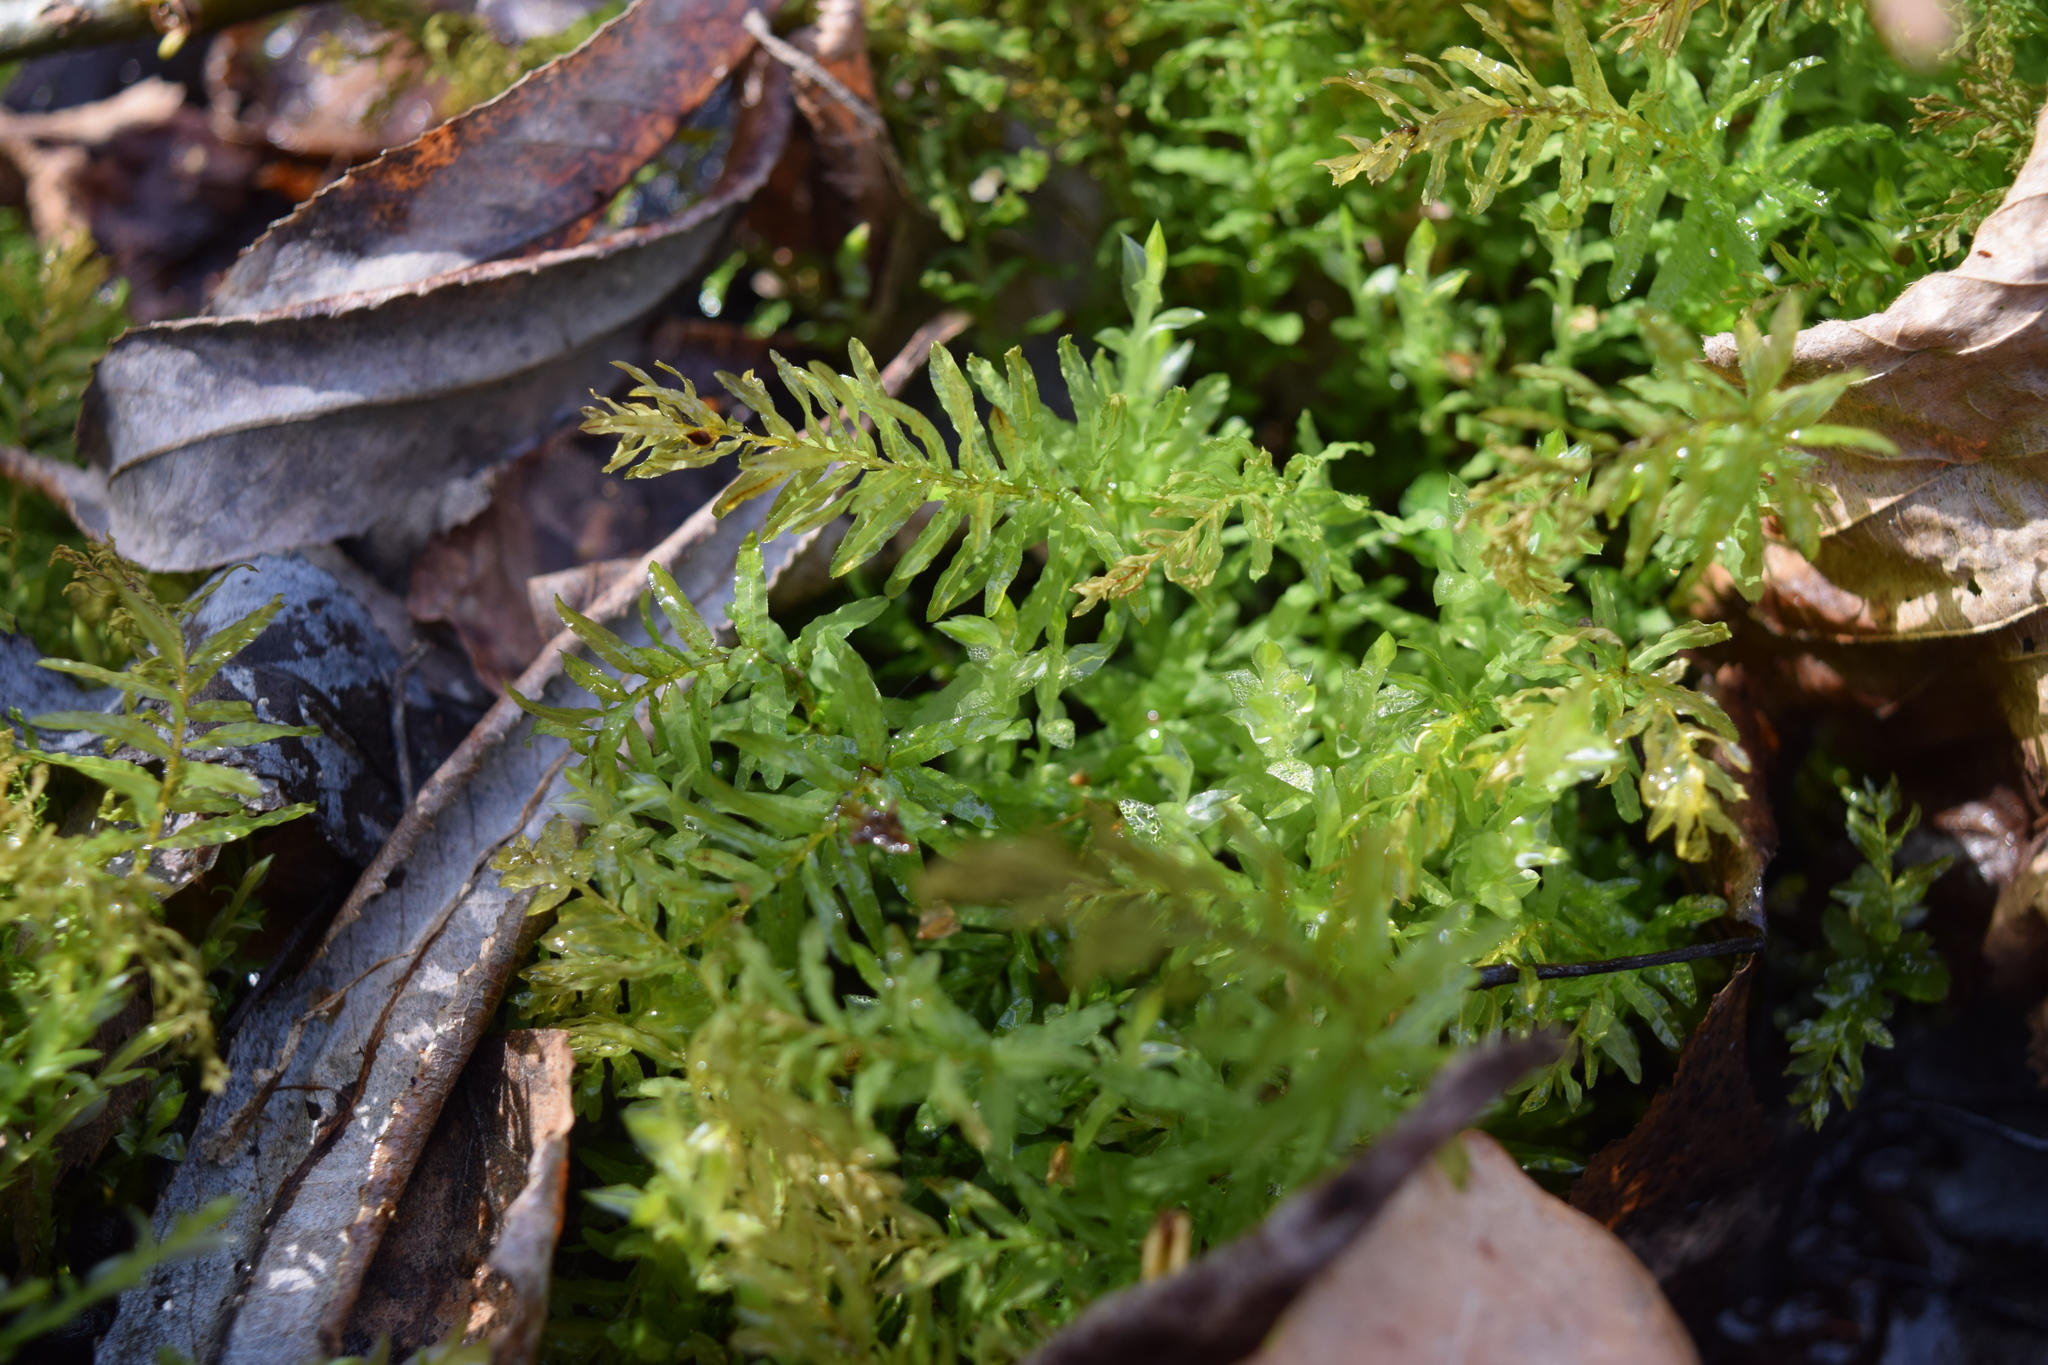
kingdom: Plantae
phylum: Bryophyta
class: Bryopsida
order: Bryales
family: Mniaceae
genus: Plagiomnium
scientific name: Plagiomnium undulatum
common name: Hart's-tongue thyme-moss
